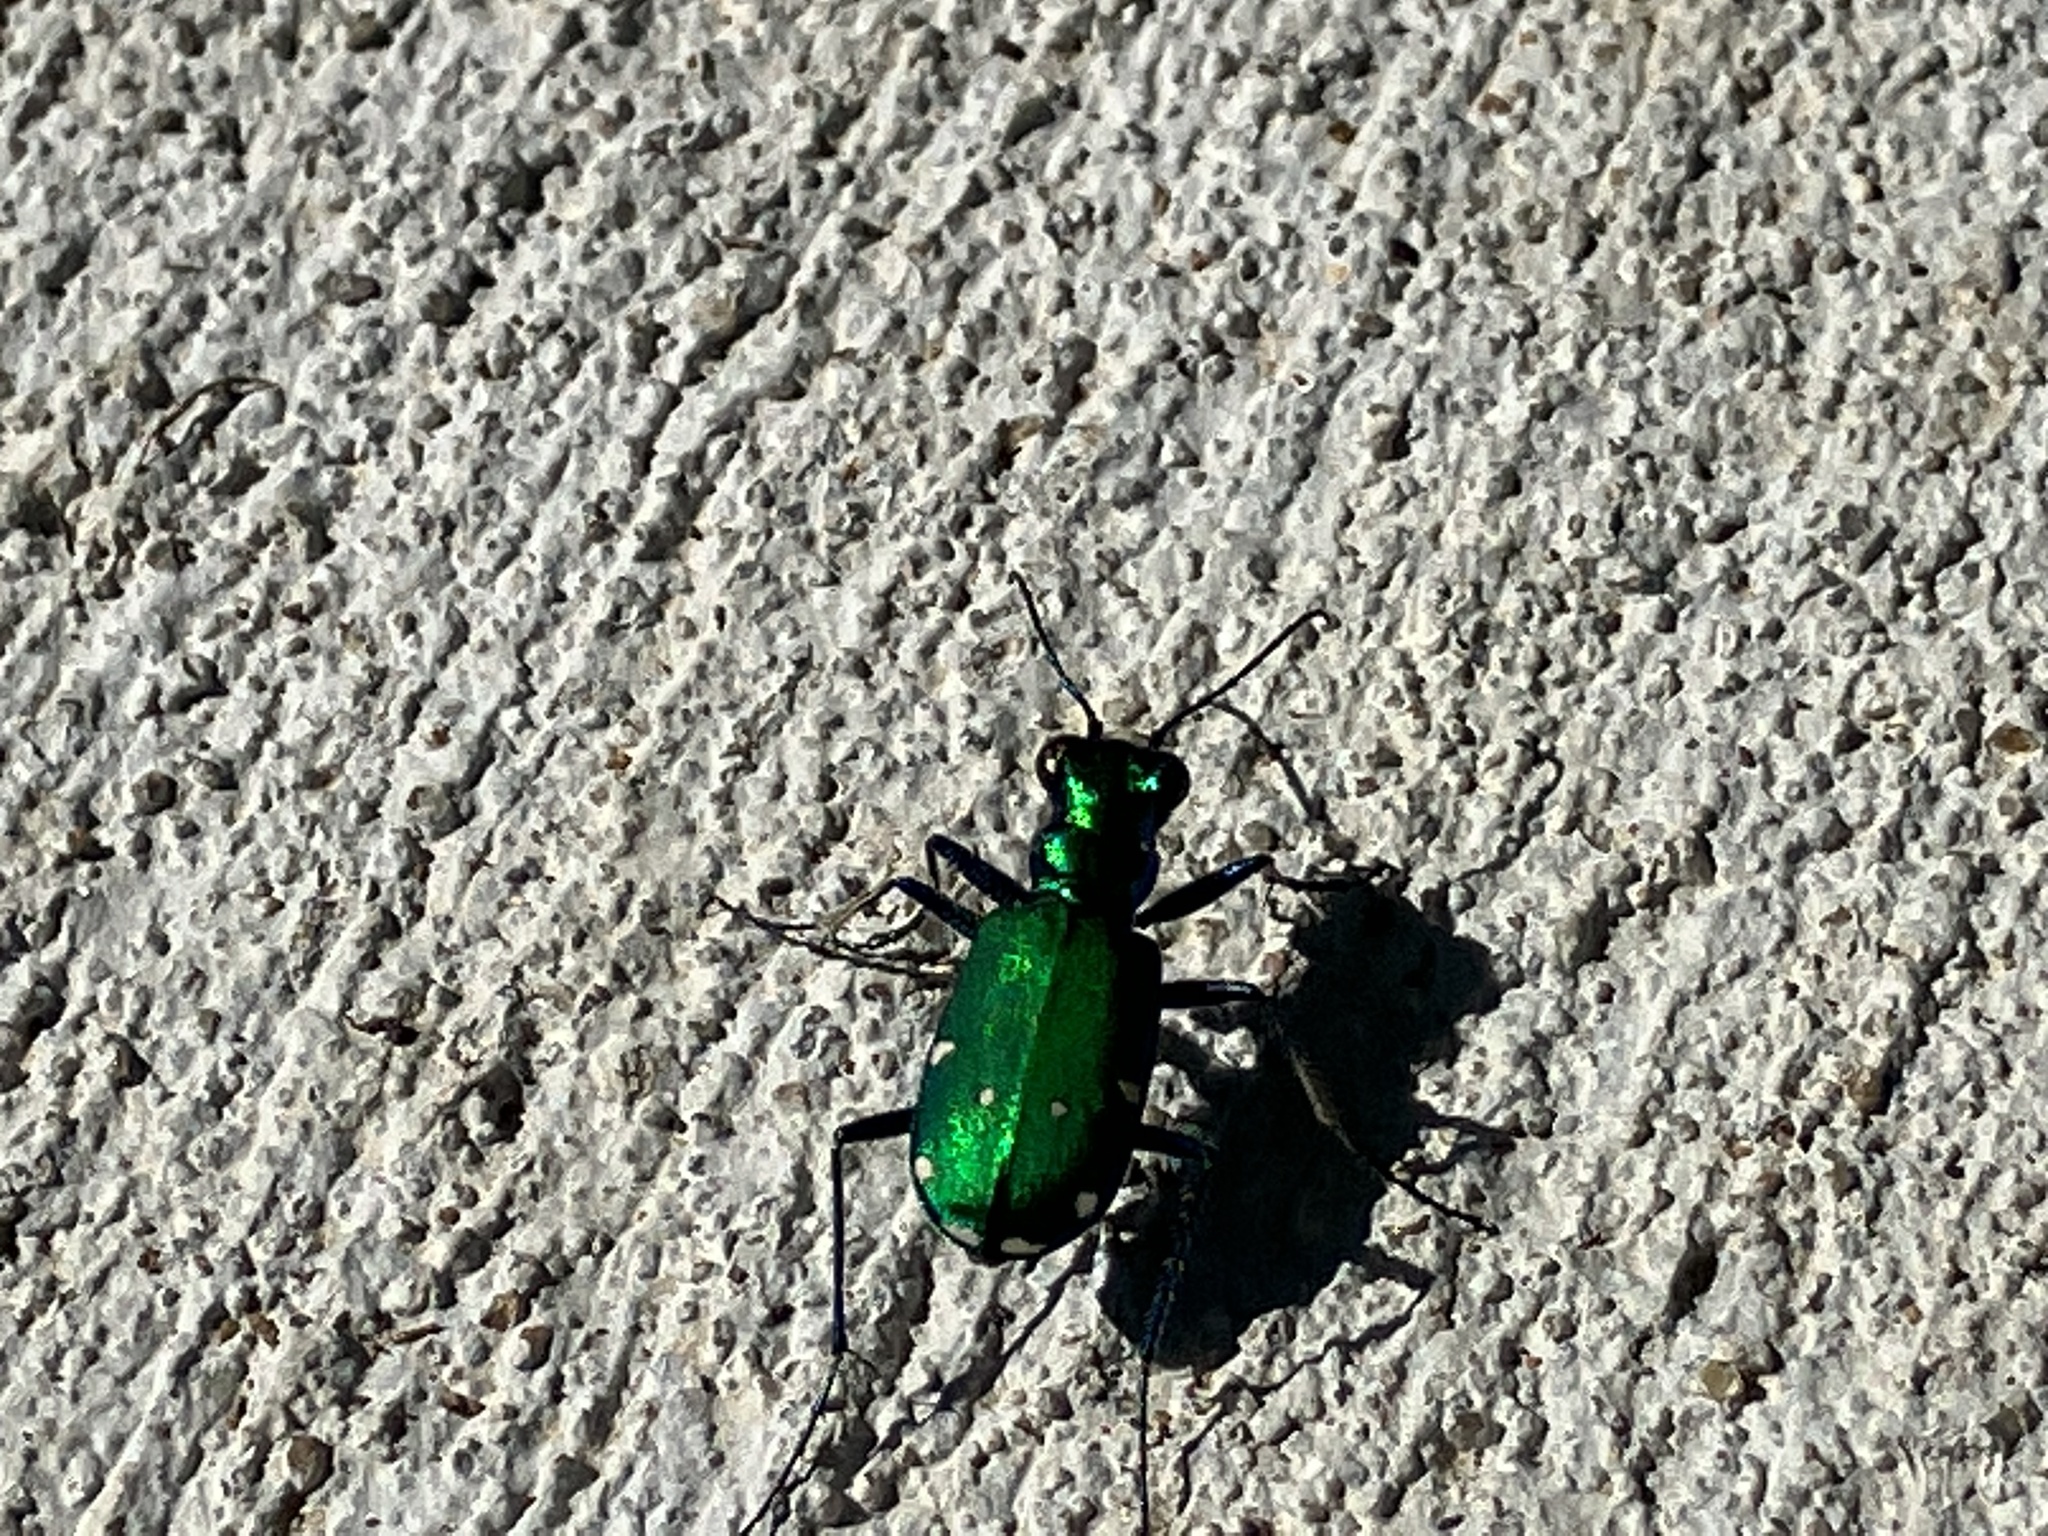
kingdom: Animalia
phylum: Arthropoda
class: Insecta
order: Coleoptera
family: Carabidae
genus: Cicindela
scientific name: Cicindela sexguttata
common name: Six-spotted tiger beetle
